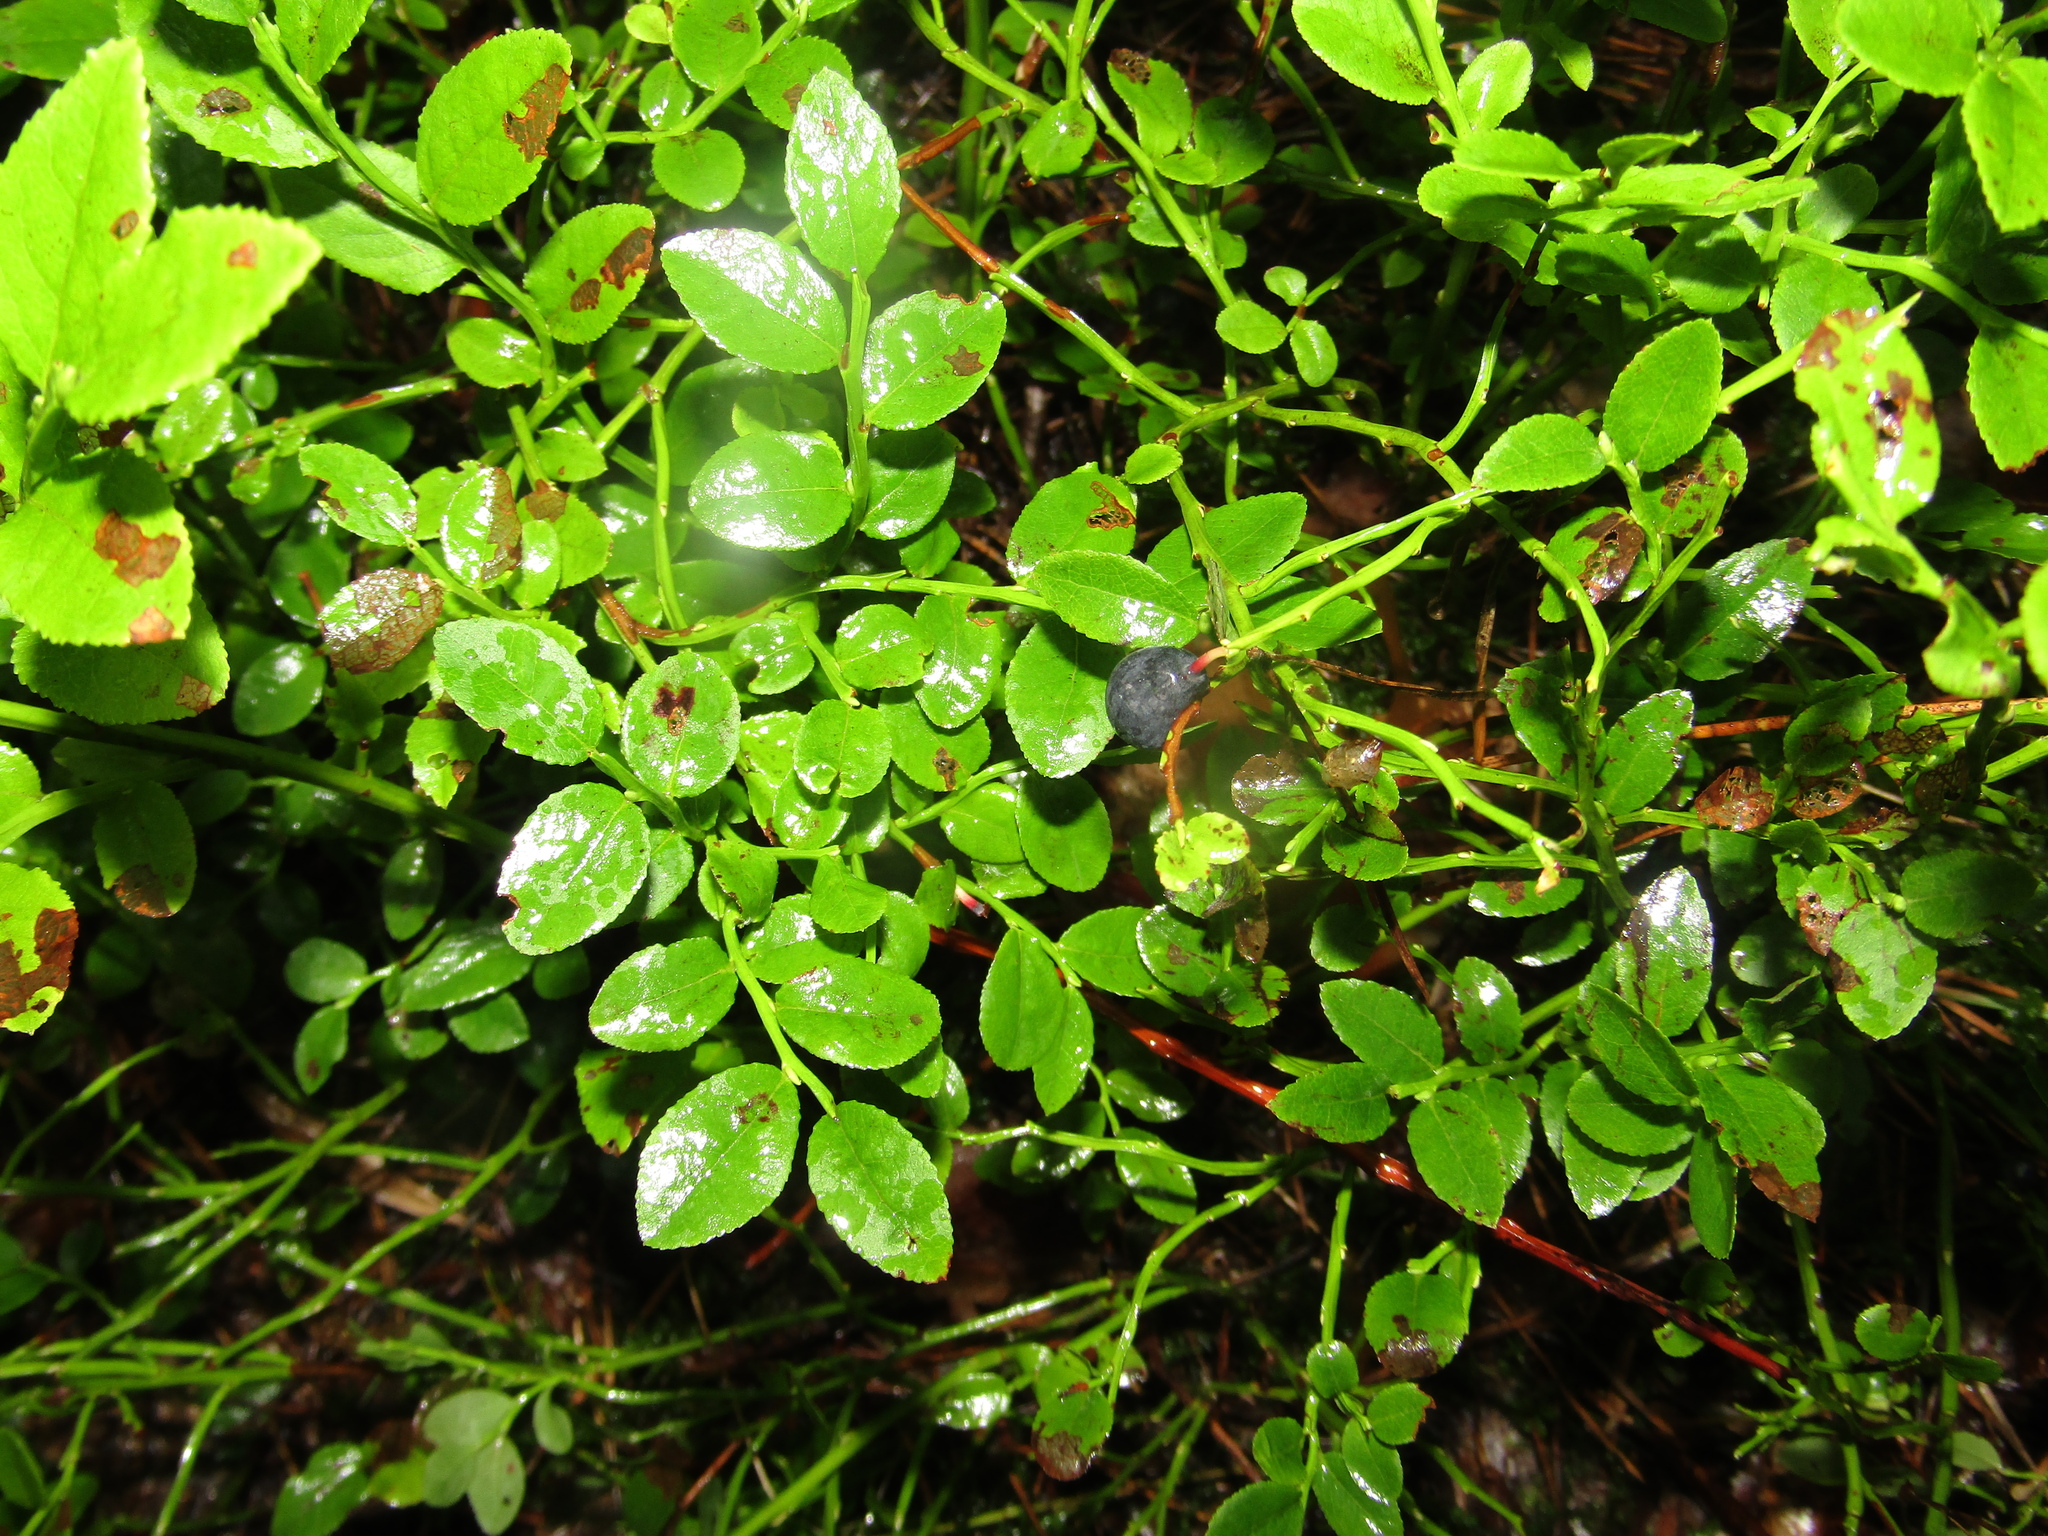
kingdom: Plantae
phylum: Tracheophyta
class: Magnoliopsida
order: Ericales
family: Ericaceae
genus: Vaccinium
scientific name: Vaccinium myrtillus
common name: Bilberry
